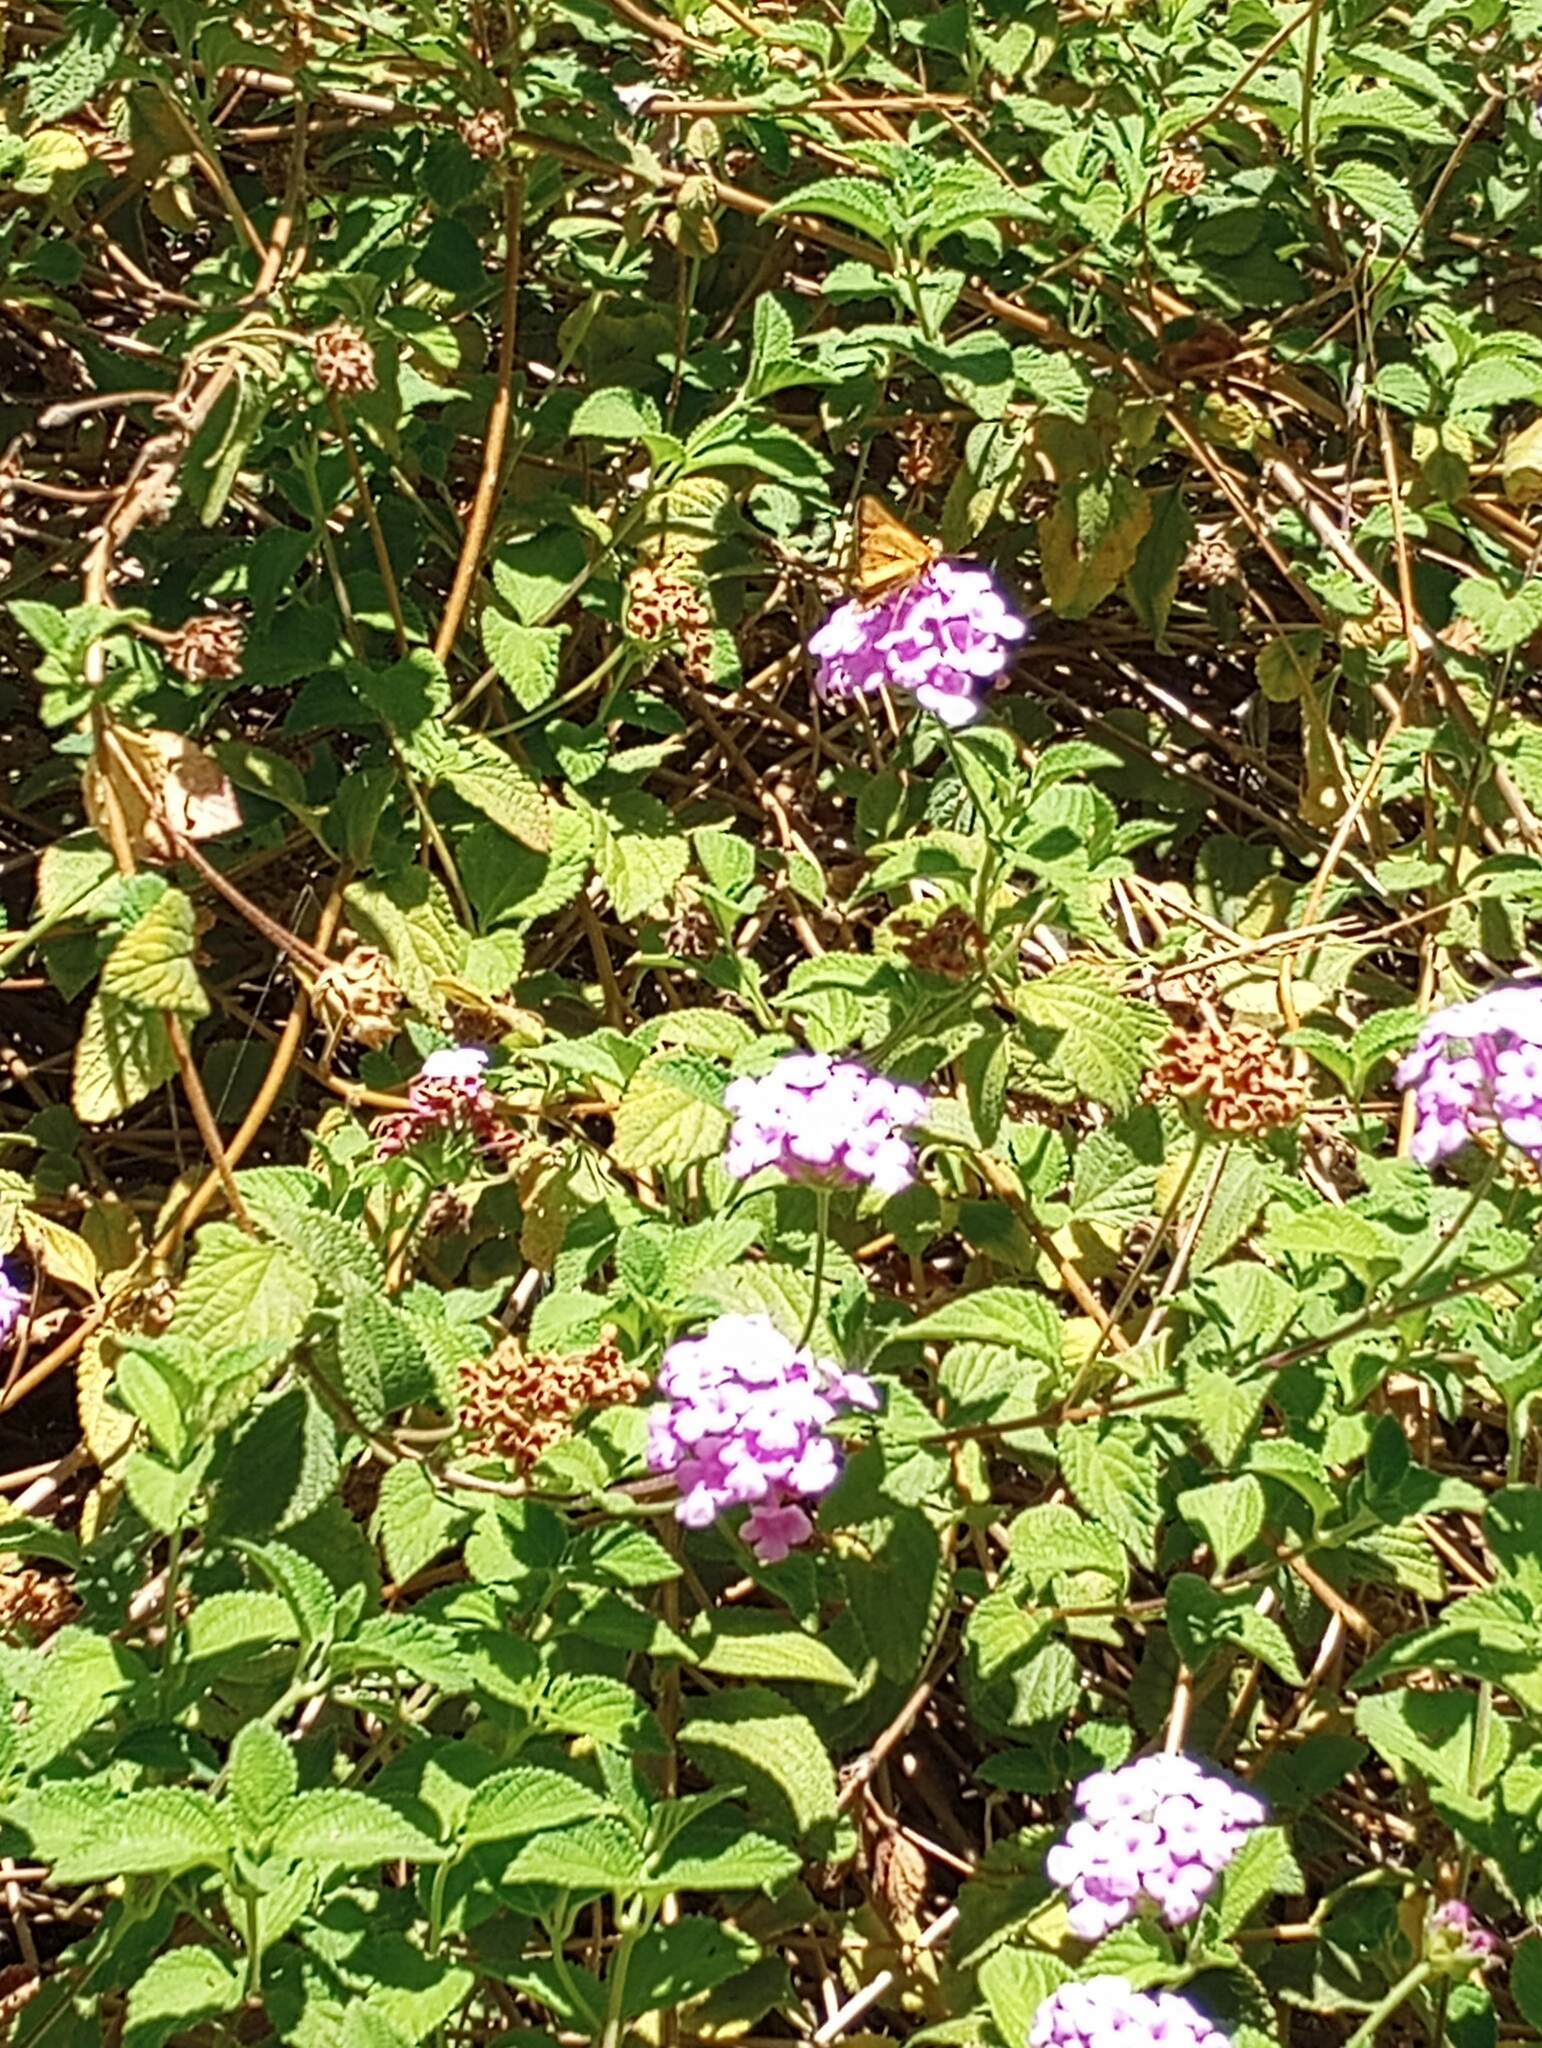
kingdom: Animalia
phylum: Arthropoda
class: Insecta
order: Lepidoptera
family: Hesperiidae
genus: Hylephila
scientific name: Hylephila phyleus
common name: Fiery skipper
